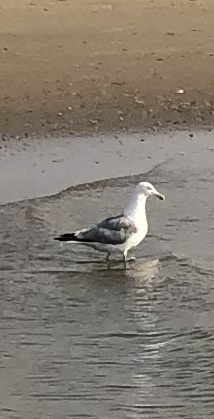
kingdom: Animalia
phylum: Chordata
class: Aves
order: Charadriiformes
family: Laridae
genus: Larus
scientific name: Larus argentatus
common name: Herring gull
